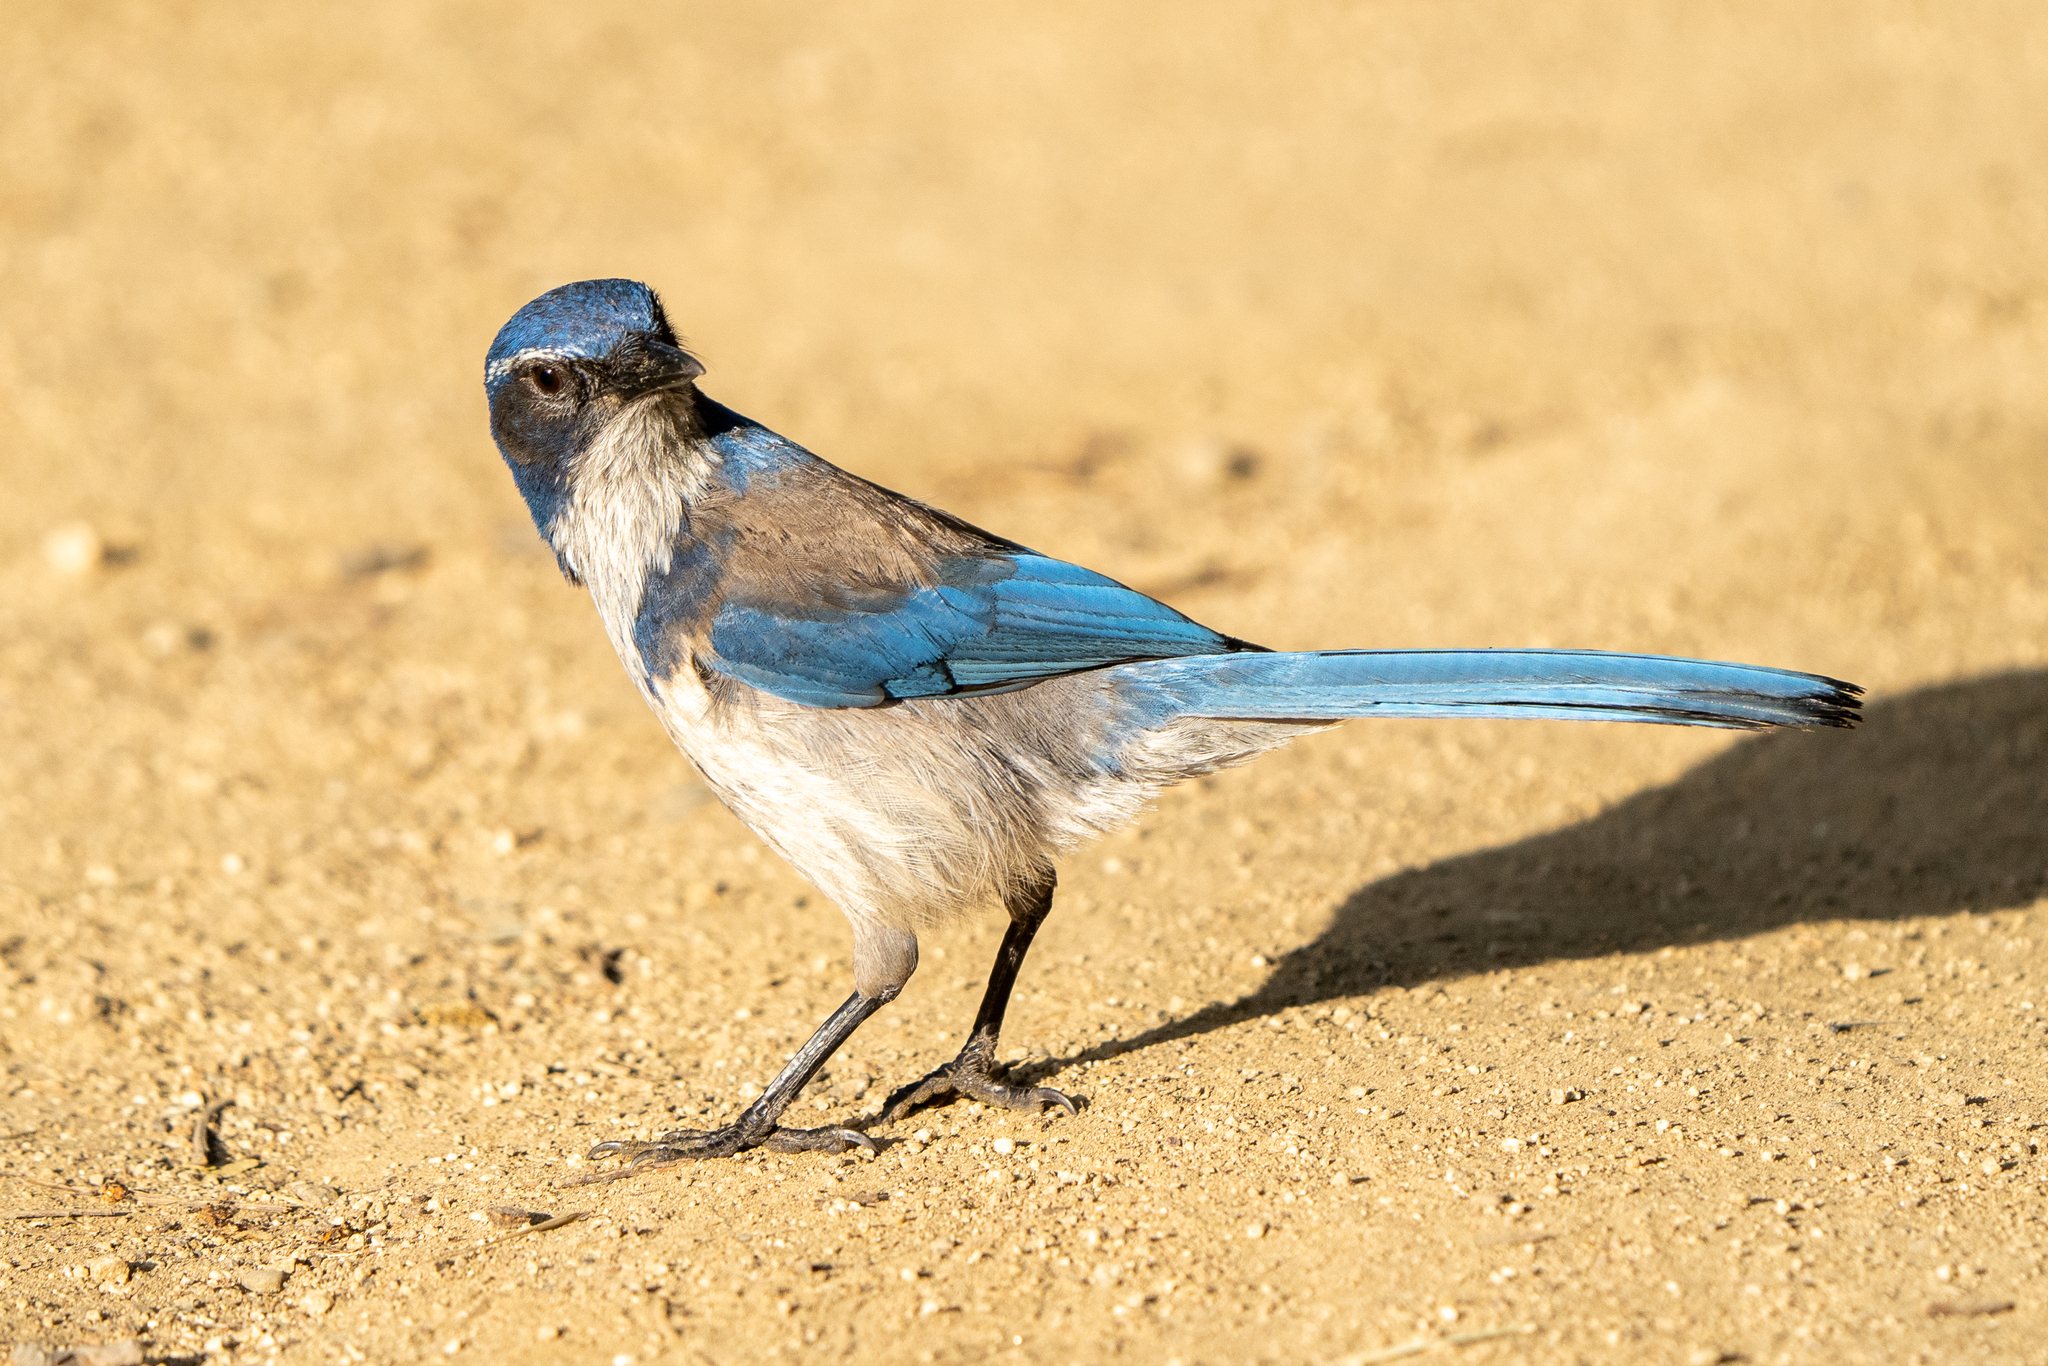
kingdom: Animalia
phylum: Chordata
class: Aves
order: Passeriformes
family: Corvidae
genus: Aphelocoma
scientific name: Aphelocoma californica
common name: California scrub-jay
